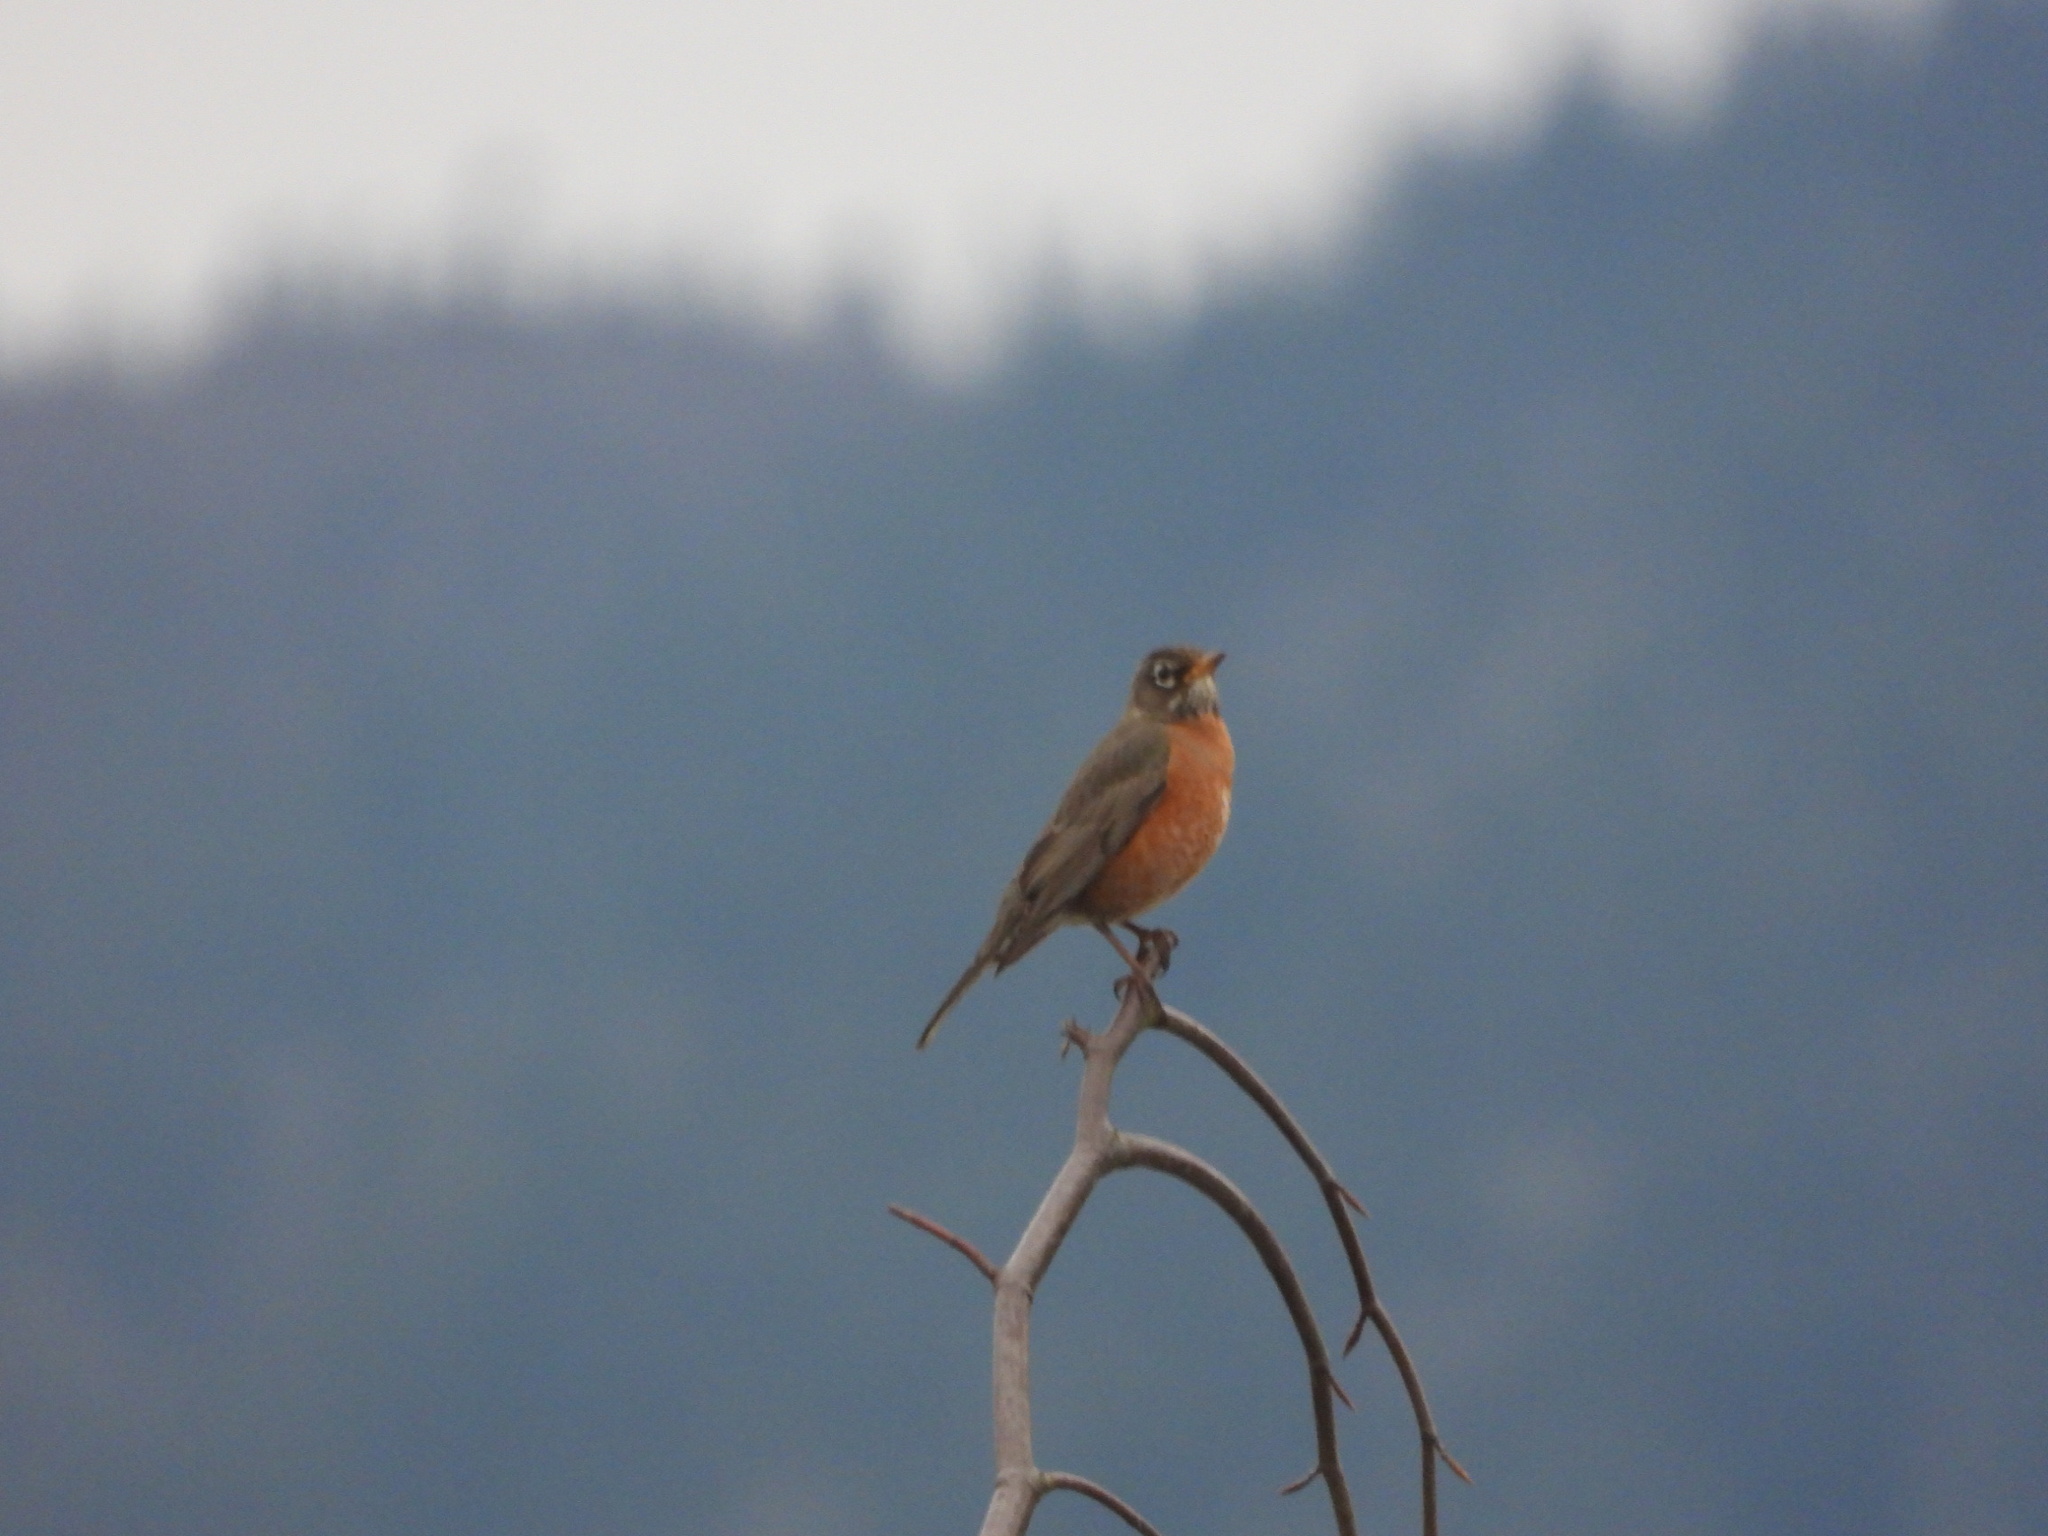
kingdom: Animalia
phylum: Chordata
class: Aves
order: Passeriformes
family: Turdidae
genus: Turdus
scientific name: Turdus migratorius
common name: American robin
